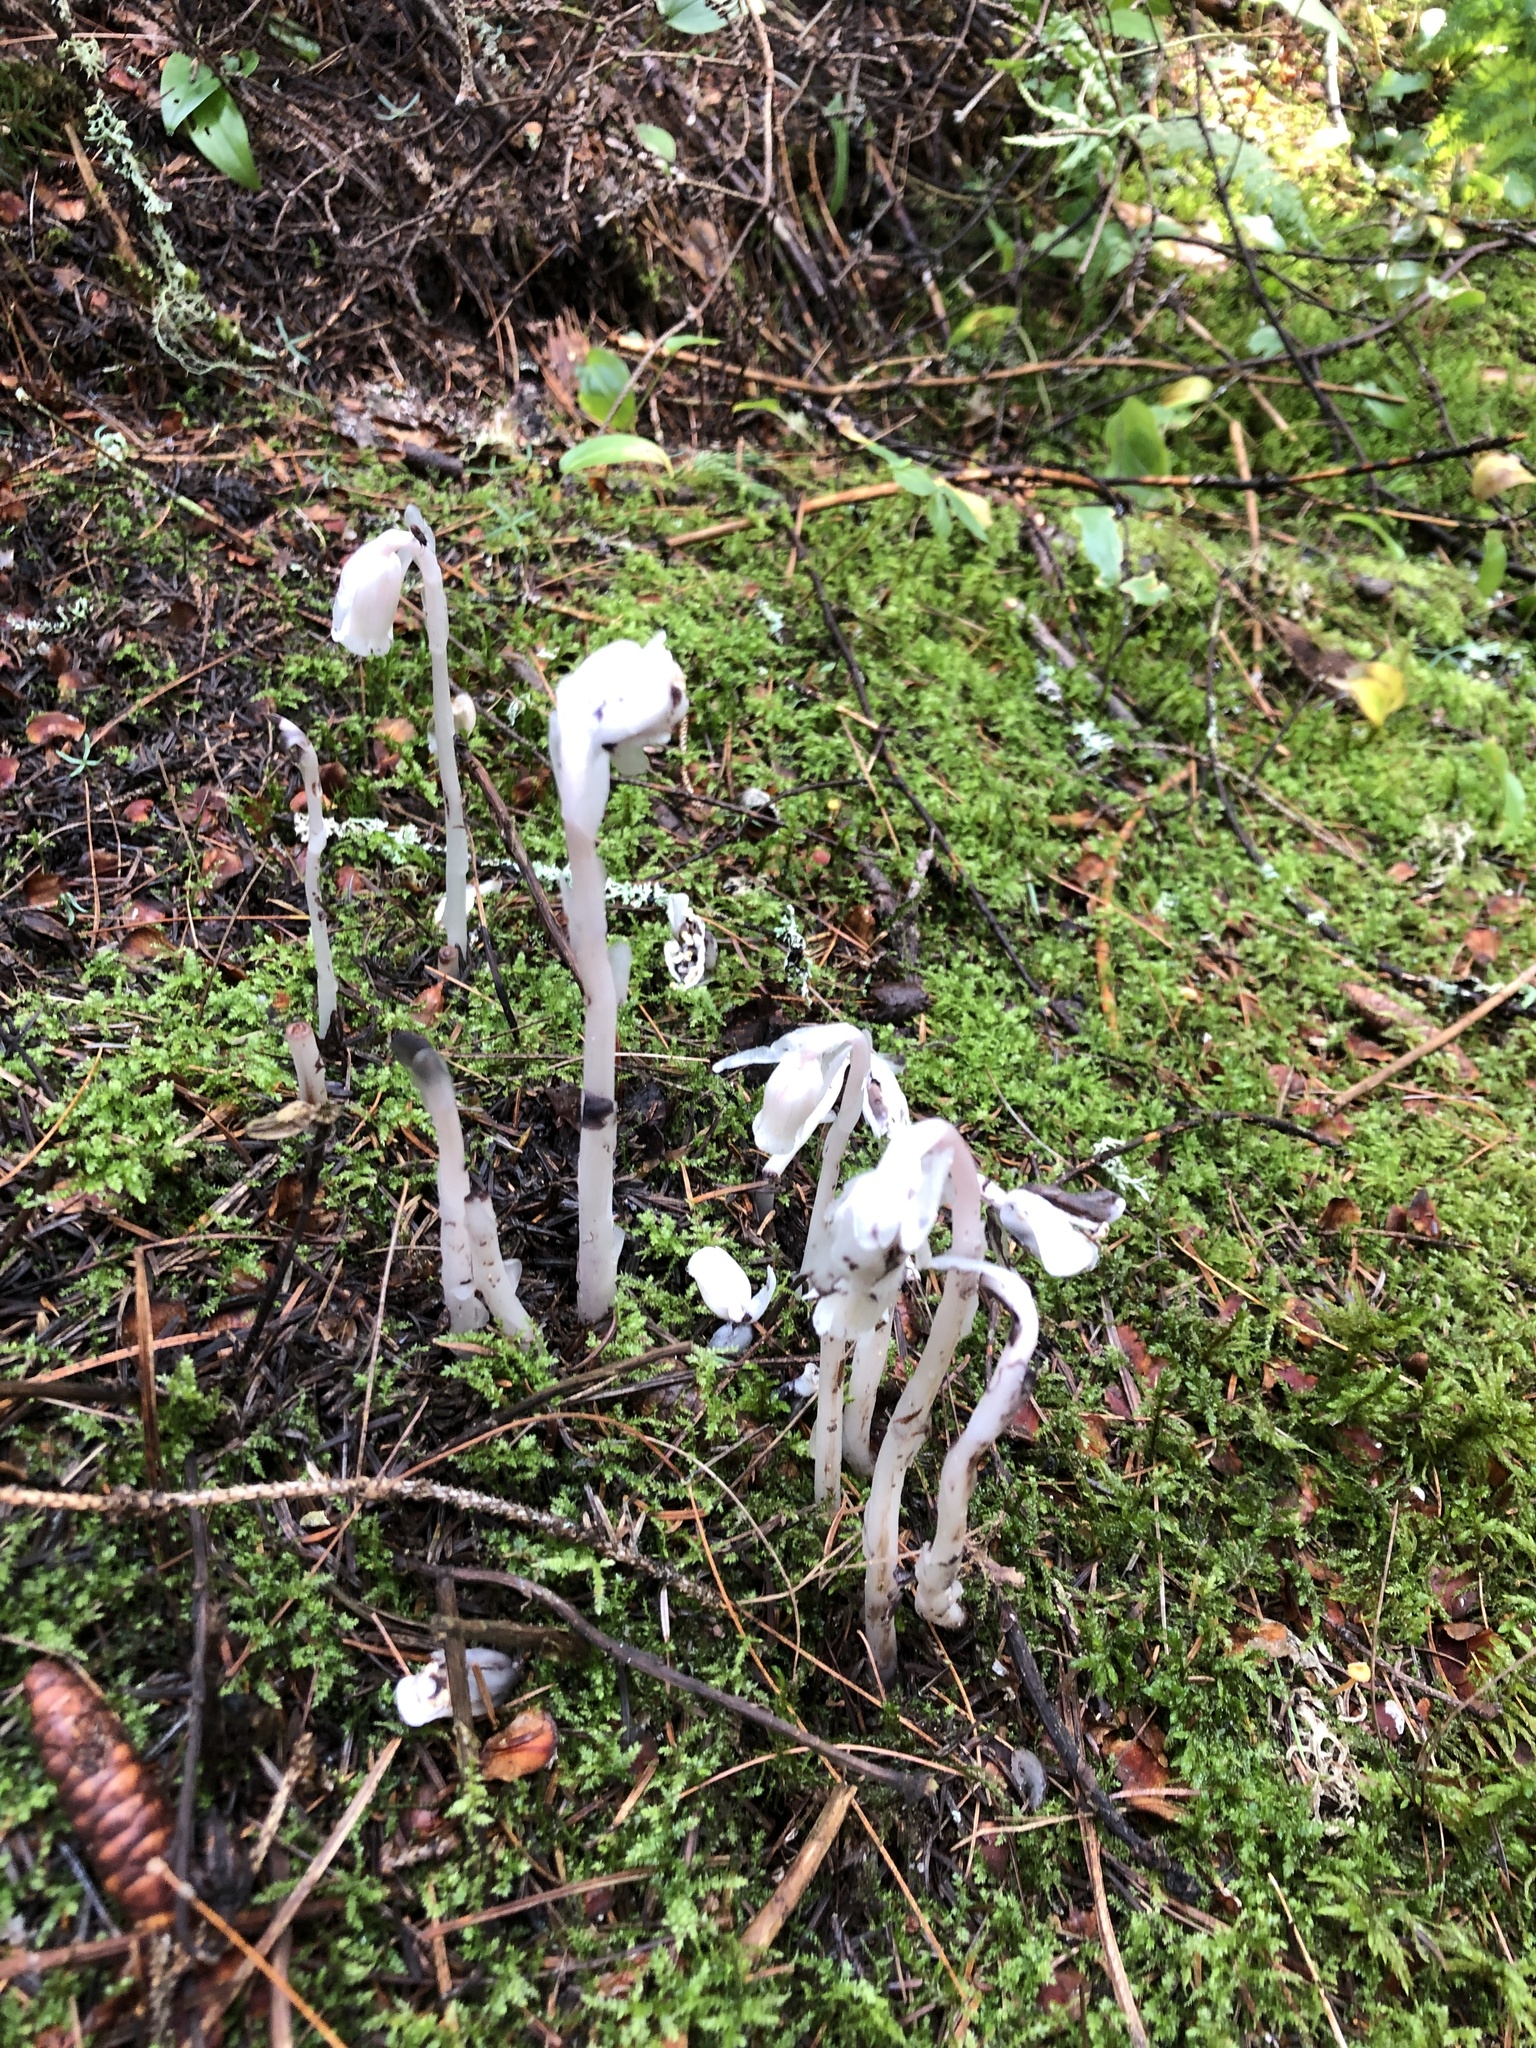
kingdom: Plantae
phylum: Tracheophyta
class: Magnoliopsida
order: Ericales
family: Ericaceae
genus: Monotropa
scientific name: Monotropa uniflora
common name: Convulsion root
